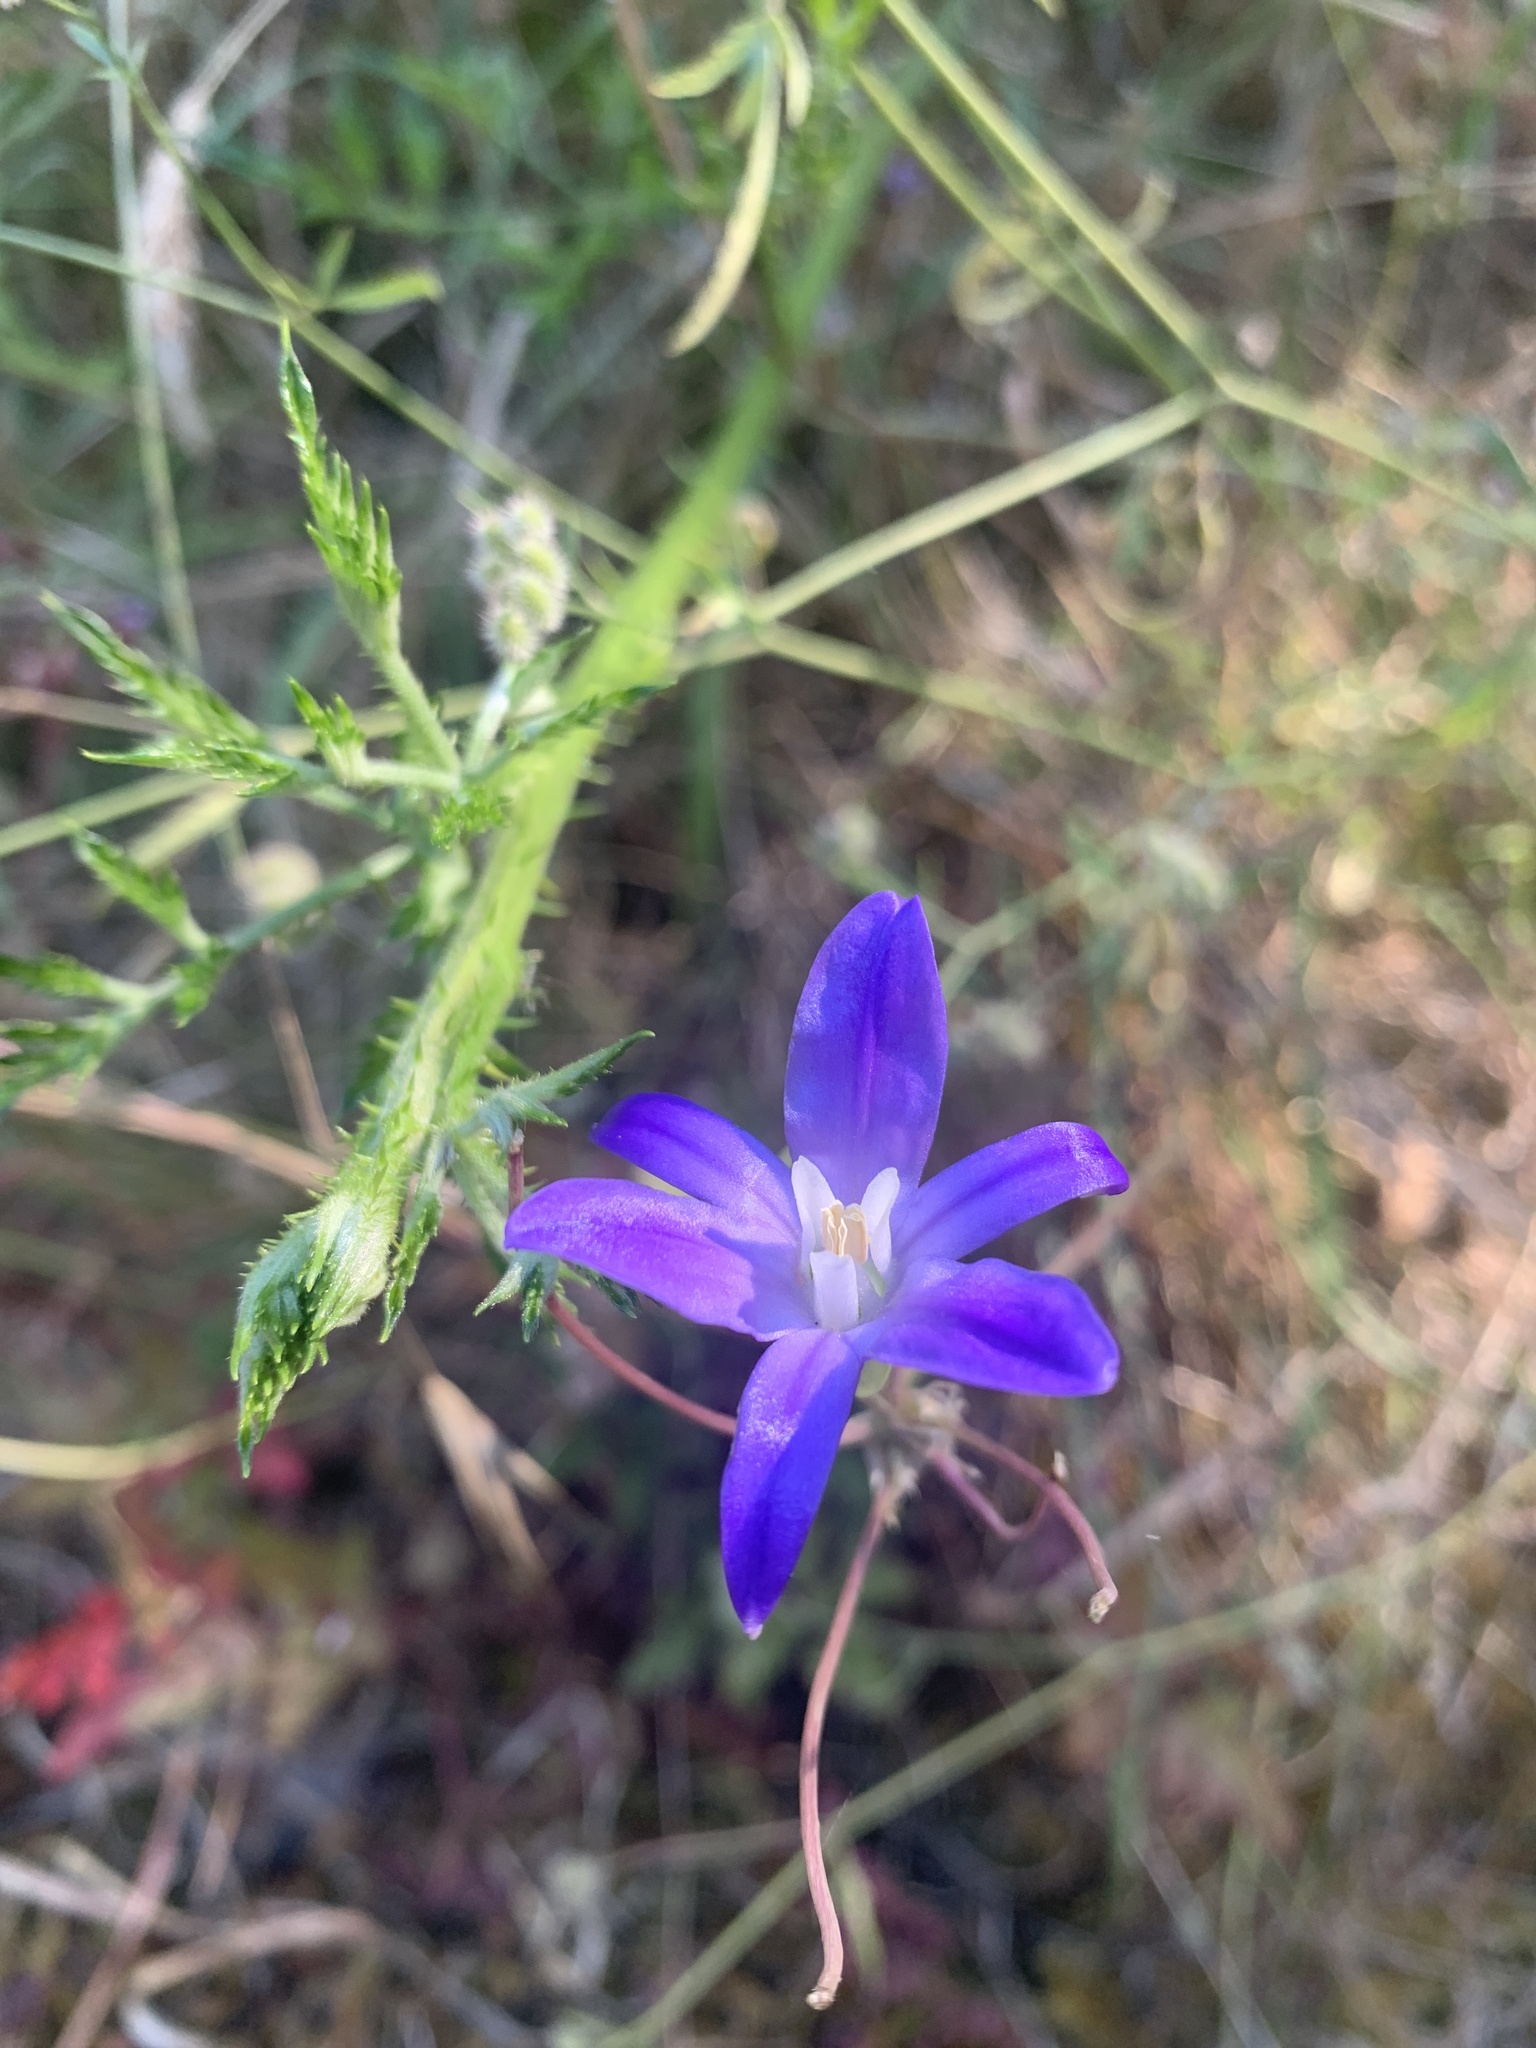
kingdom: Plantae
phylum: Tracheophyta
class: Liliopsida
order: Asparagales
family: Asparagaceae
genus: Brodiaea
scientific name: Brodiaea coronaria
